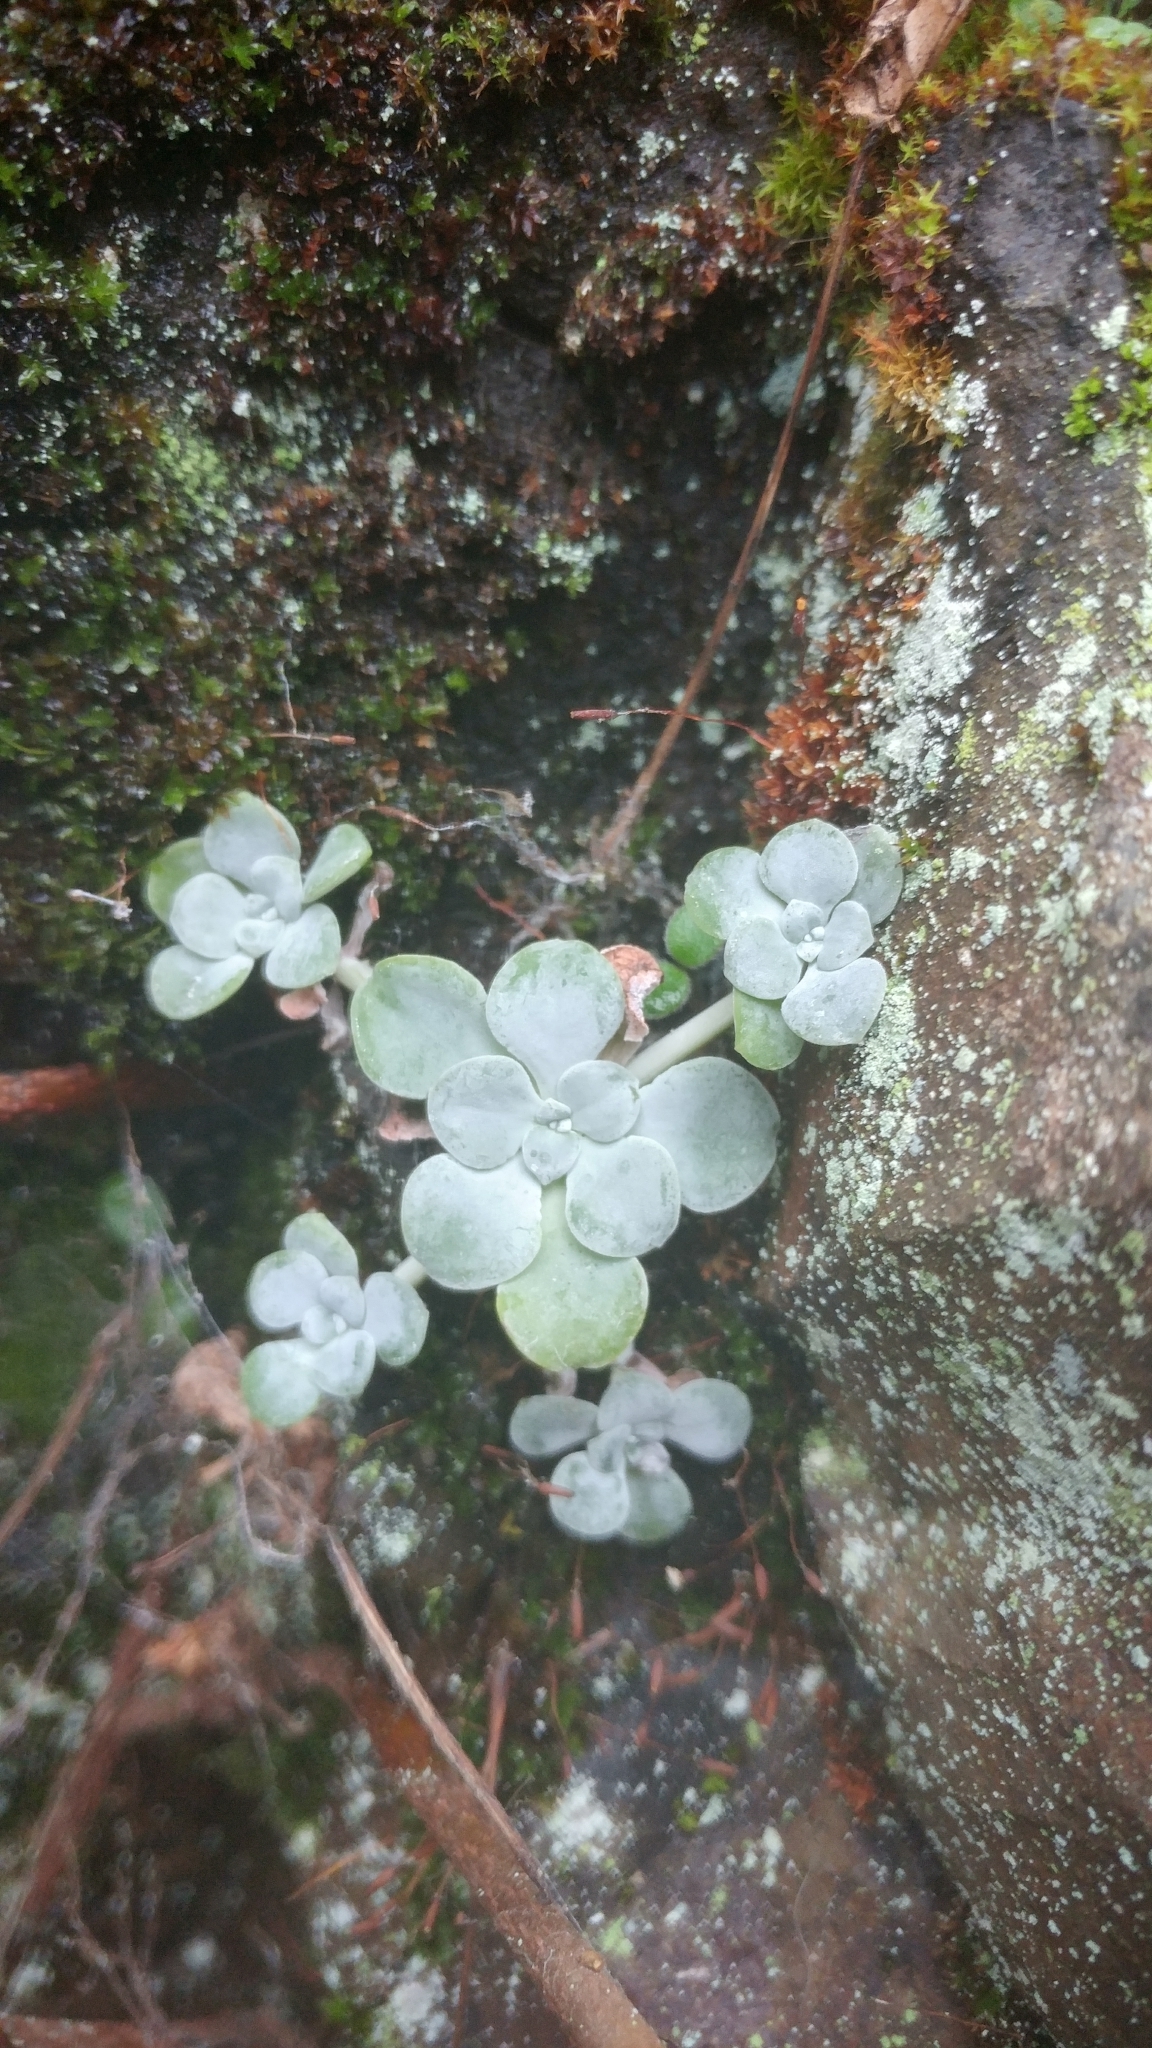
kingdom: Plantae
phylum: Tracheophyta
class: Magnoliopsida
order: Saxifragales
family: Crassulaceae
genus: Sedum
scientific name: Sedum spathulifolium
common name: Colorado stonecrop
